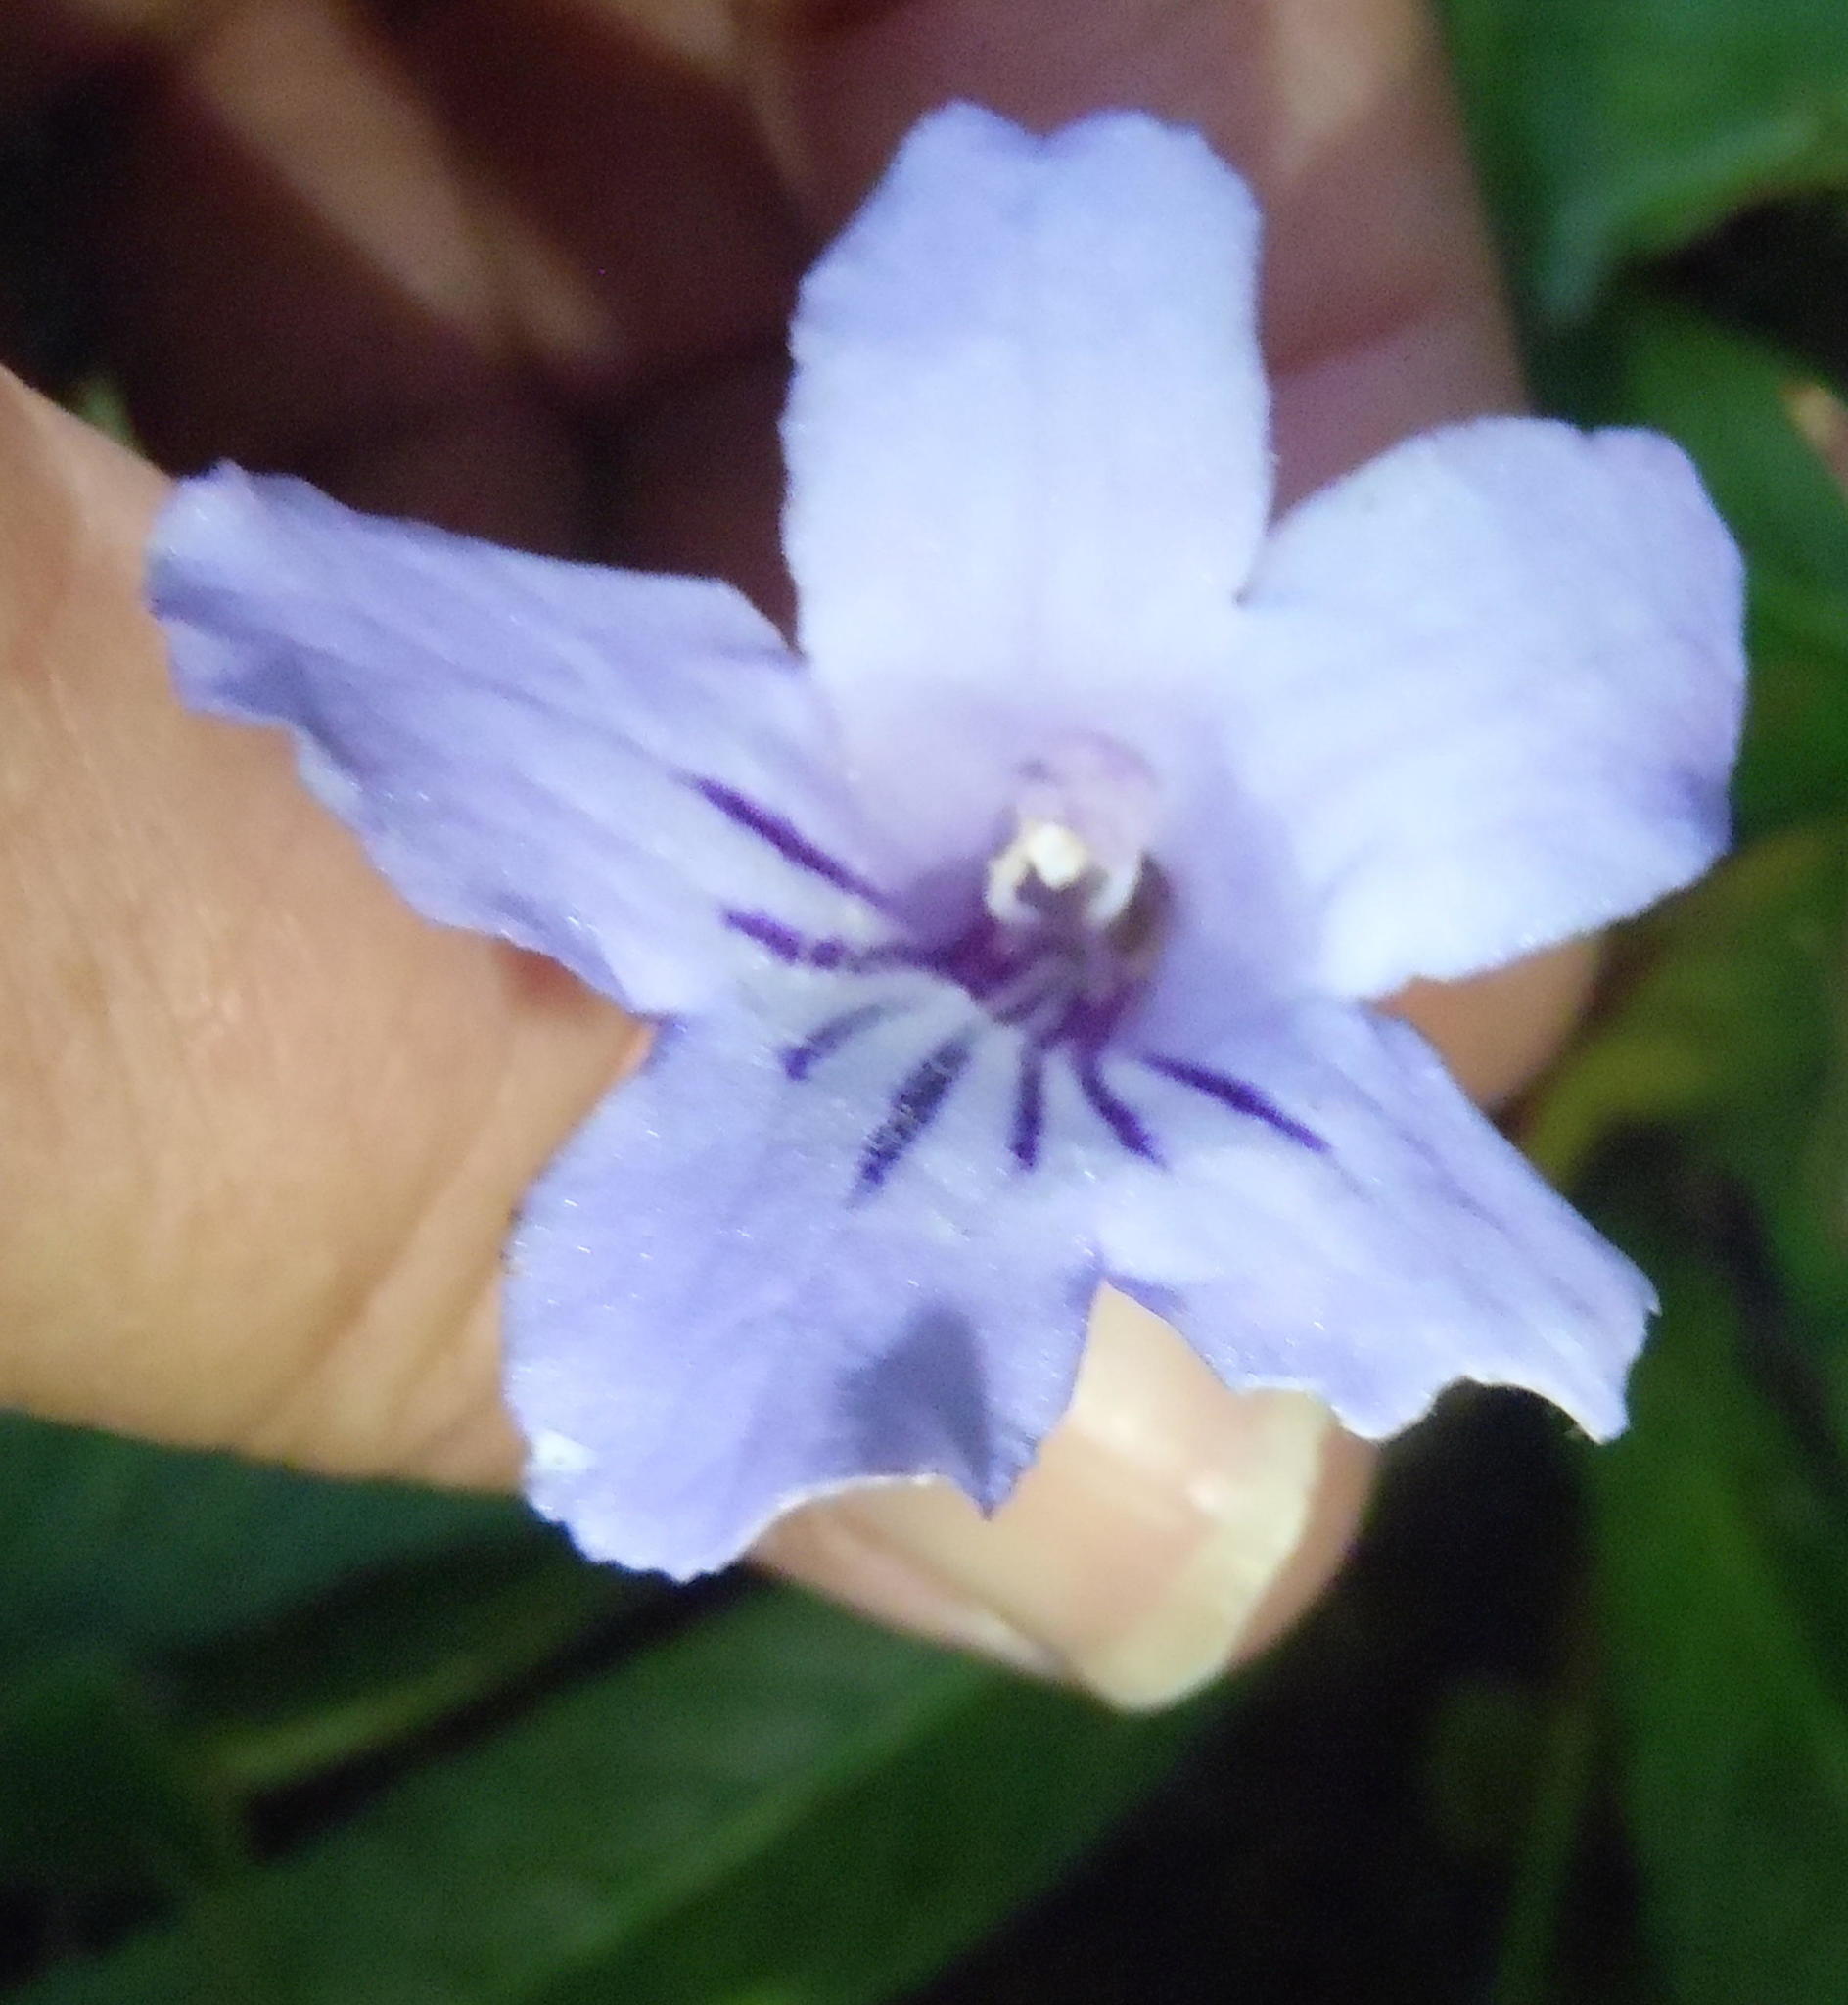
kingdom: Plantae
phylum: Tracheophyta
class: Magnoliopsida
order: Lamiales
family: Gesneriaceae
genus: Streptocarpus
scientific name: Streptocarpus rexii
